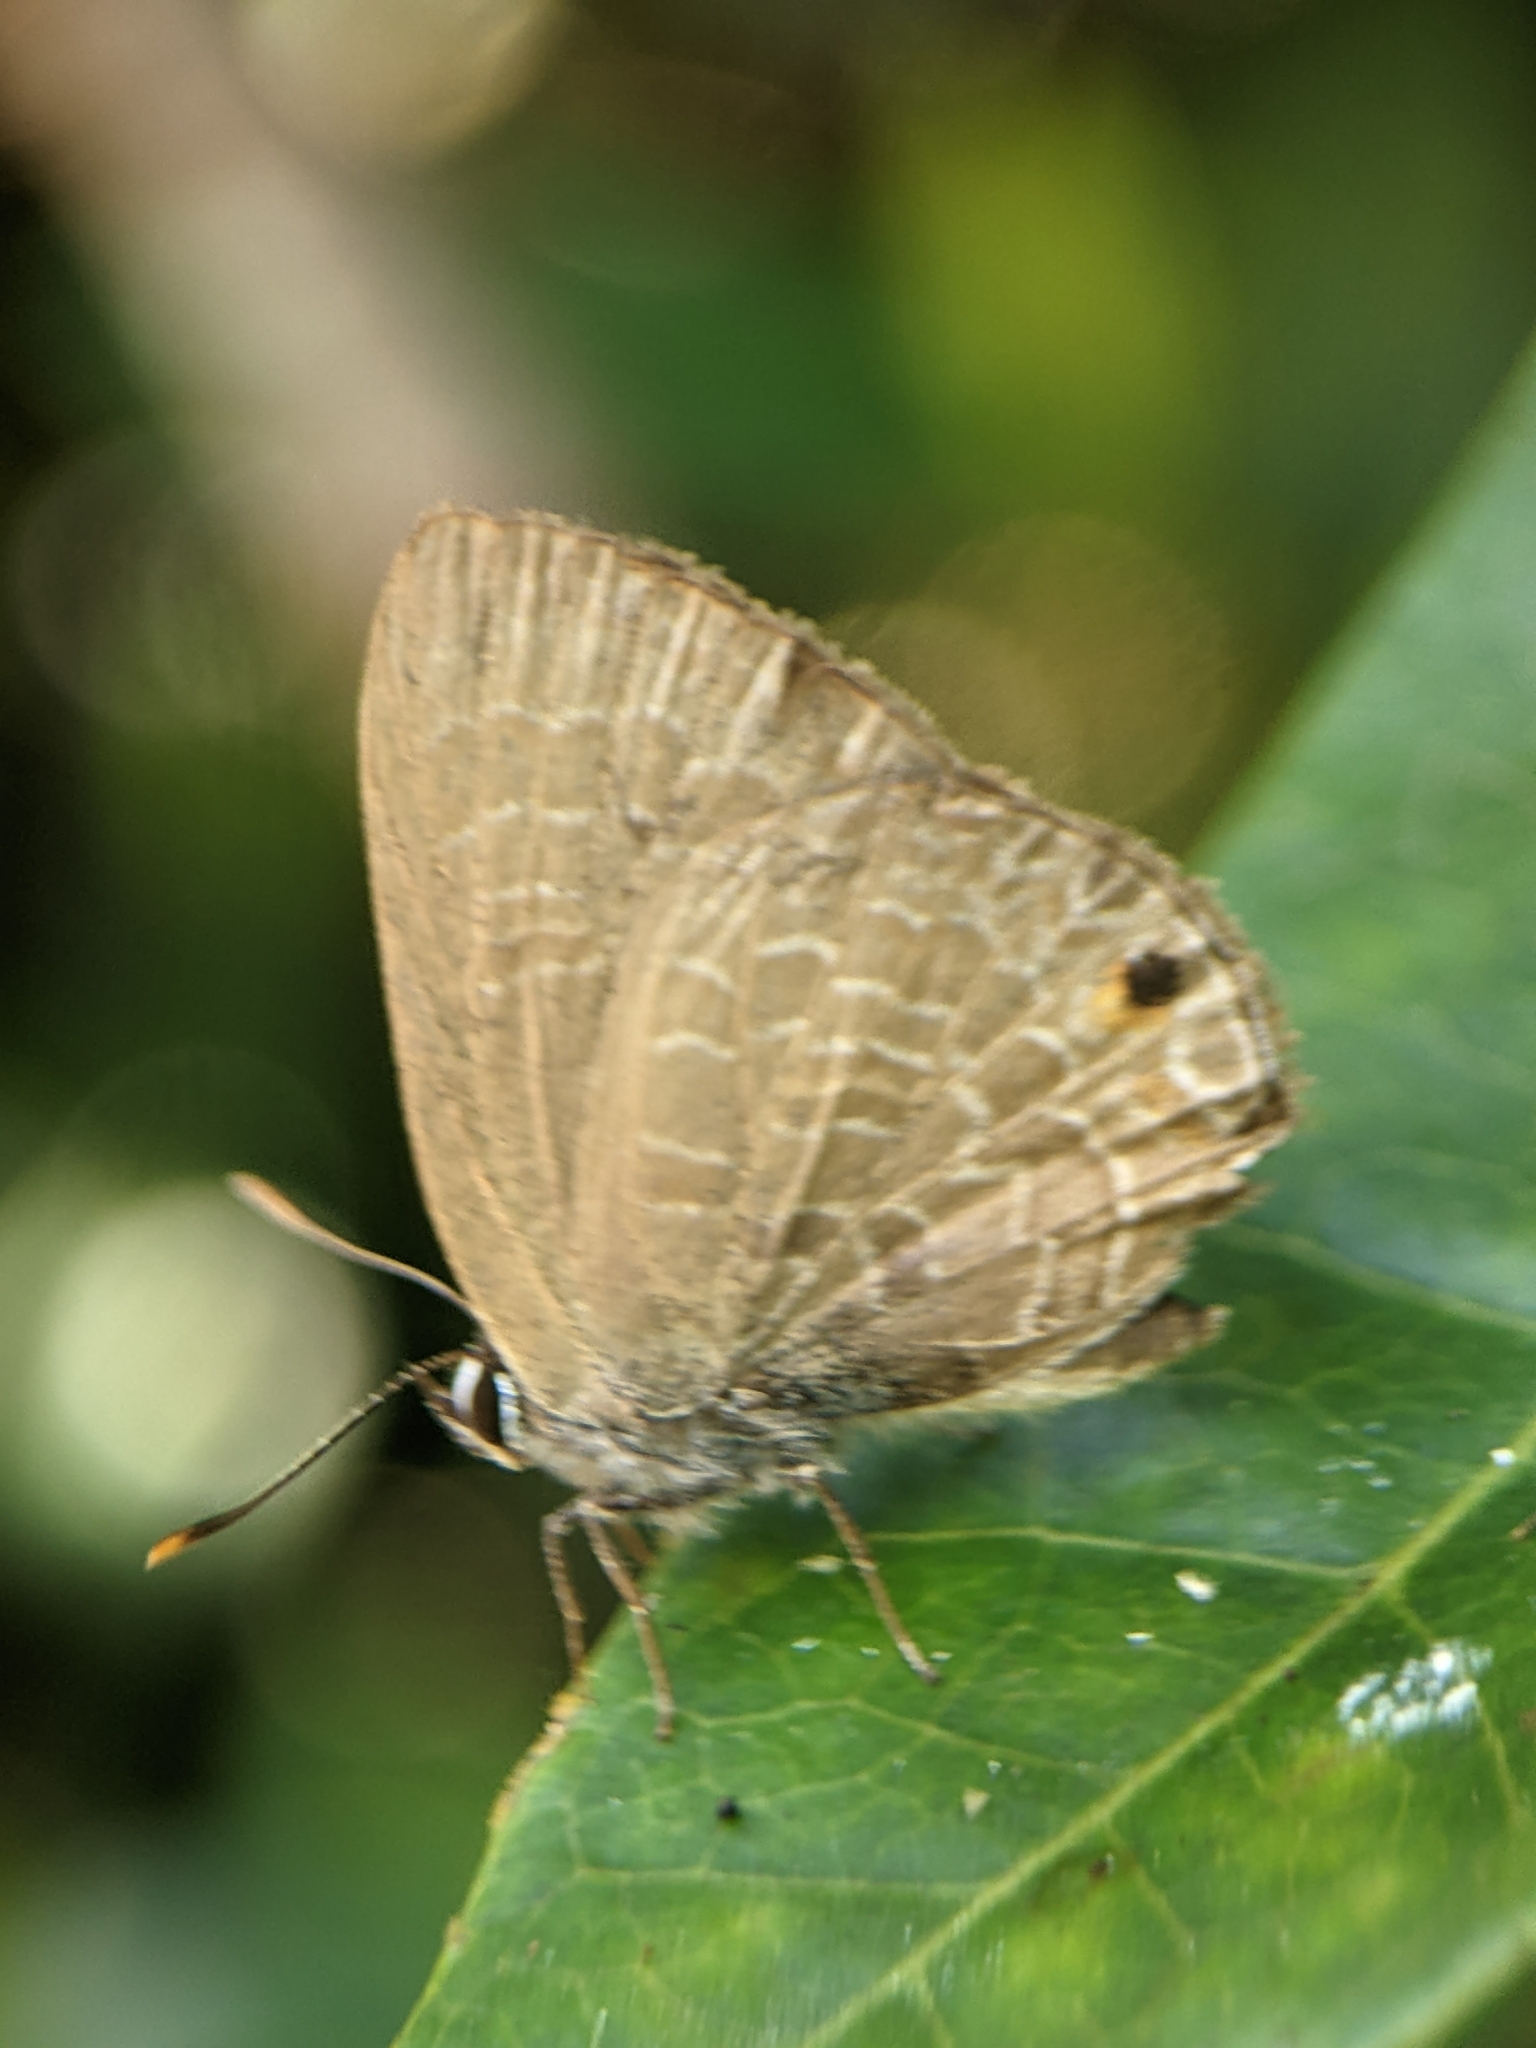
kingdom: Animalia
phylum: Arthropoda
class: Insecta
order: Lepidoptera
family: Lycaenidae
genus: Anthene
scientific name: Anthene emolus
